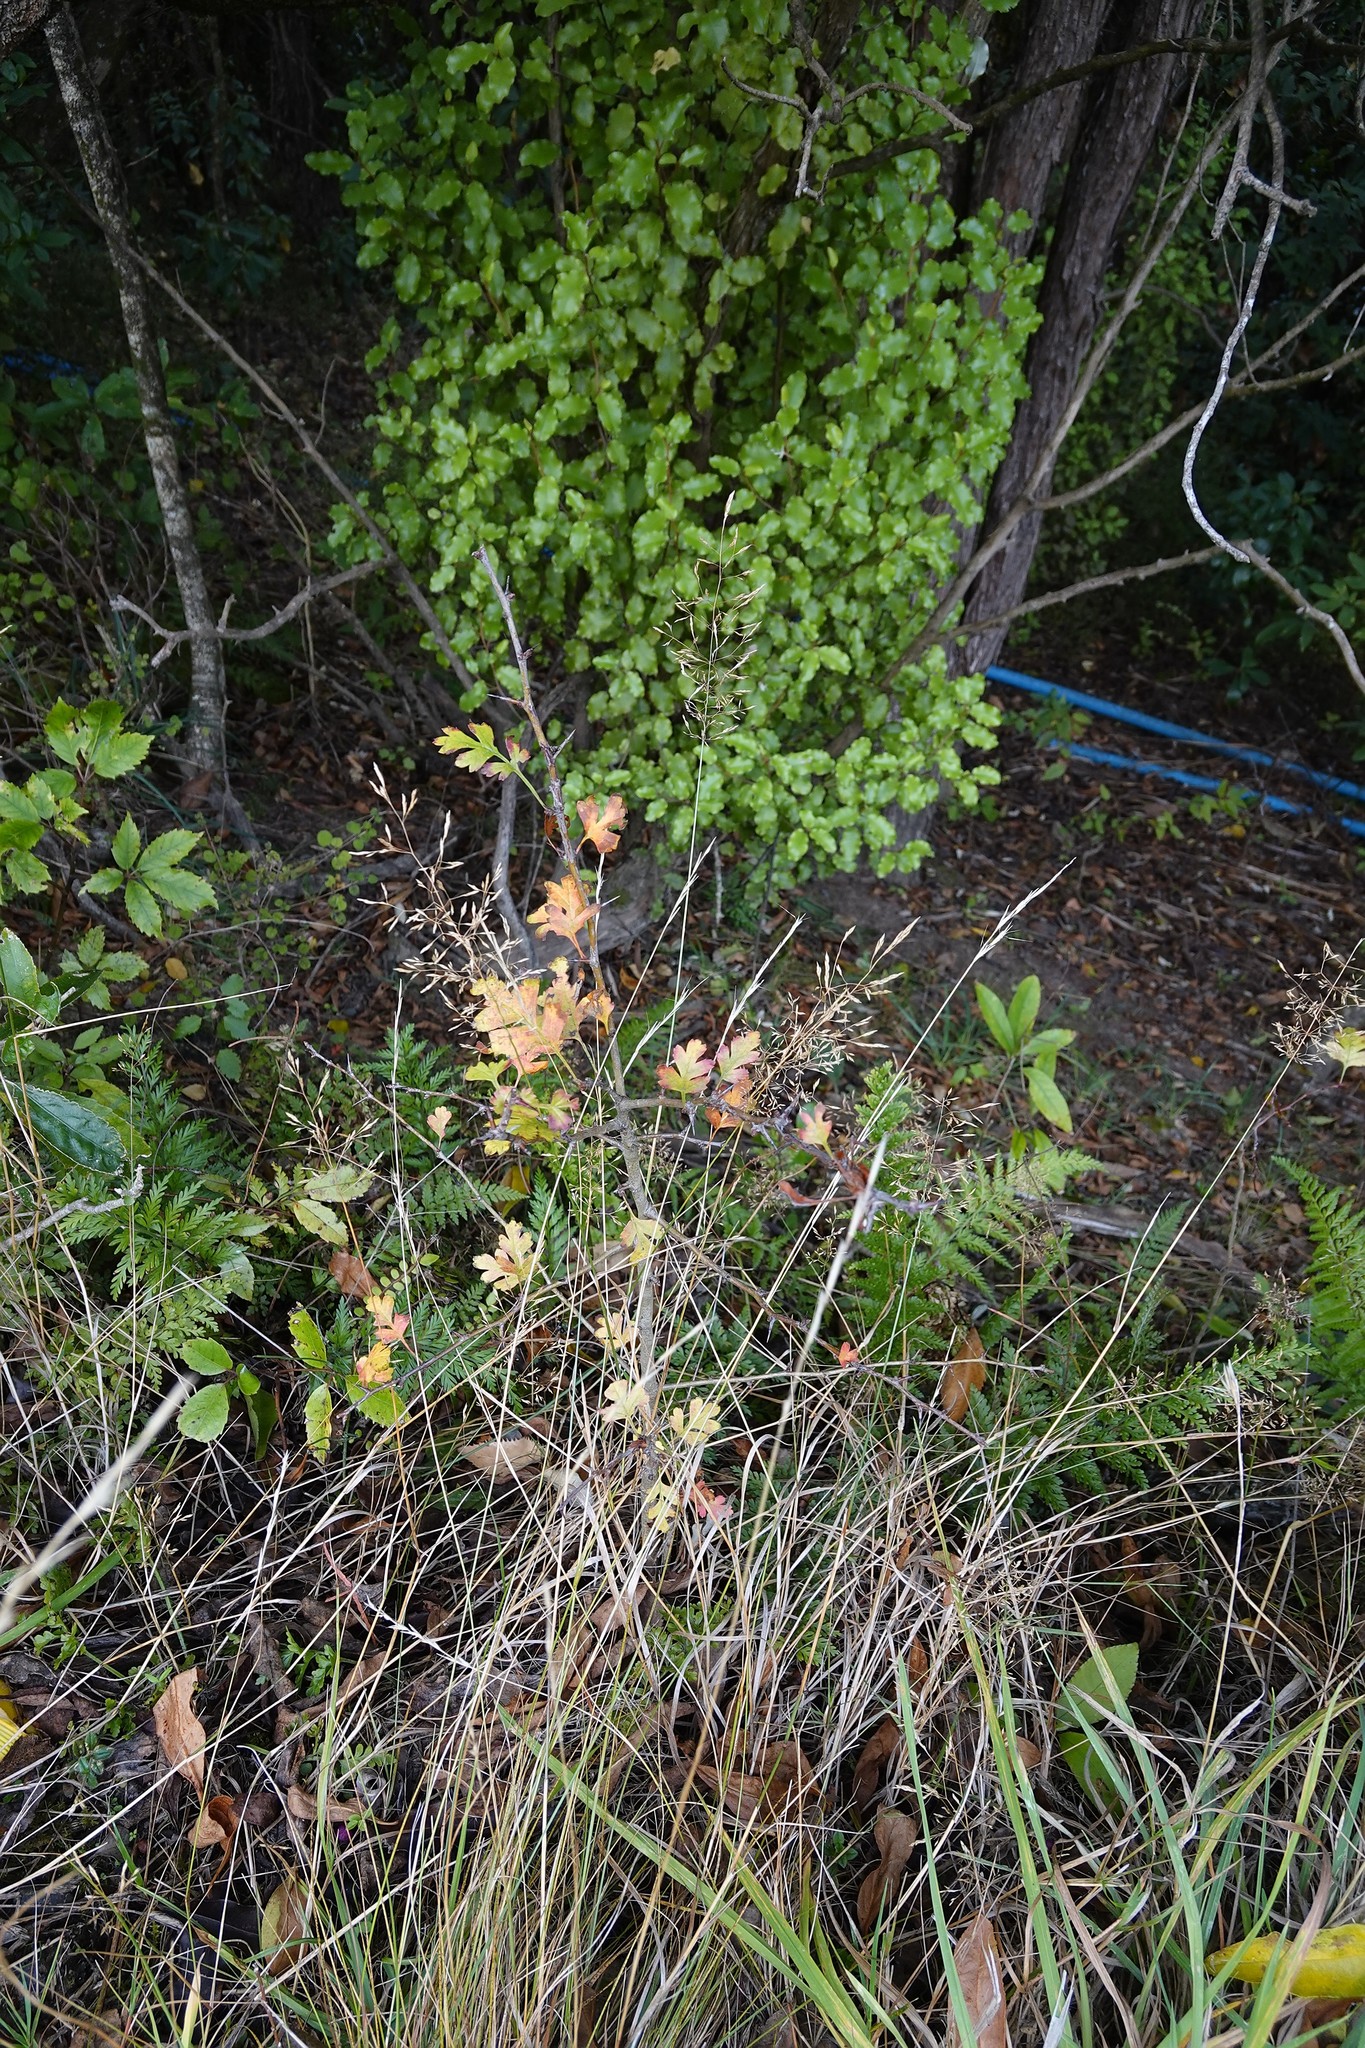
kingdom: Plantae
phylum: Tracheophyta
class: Magnoliopsida
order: Rosales
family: Rosaceae
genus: Crataegus
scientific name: Crataegus monogyna
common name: Hawthorn
